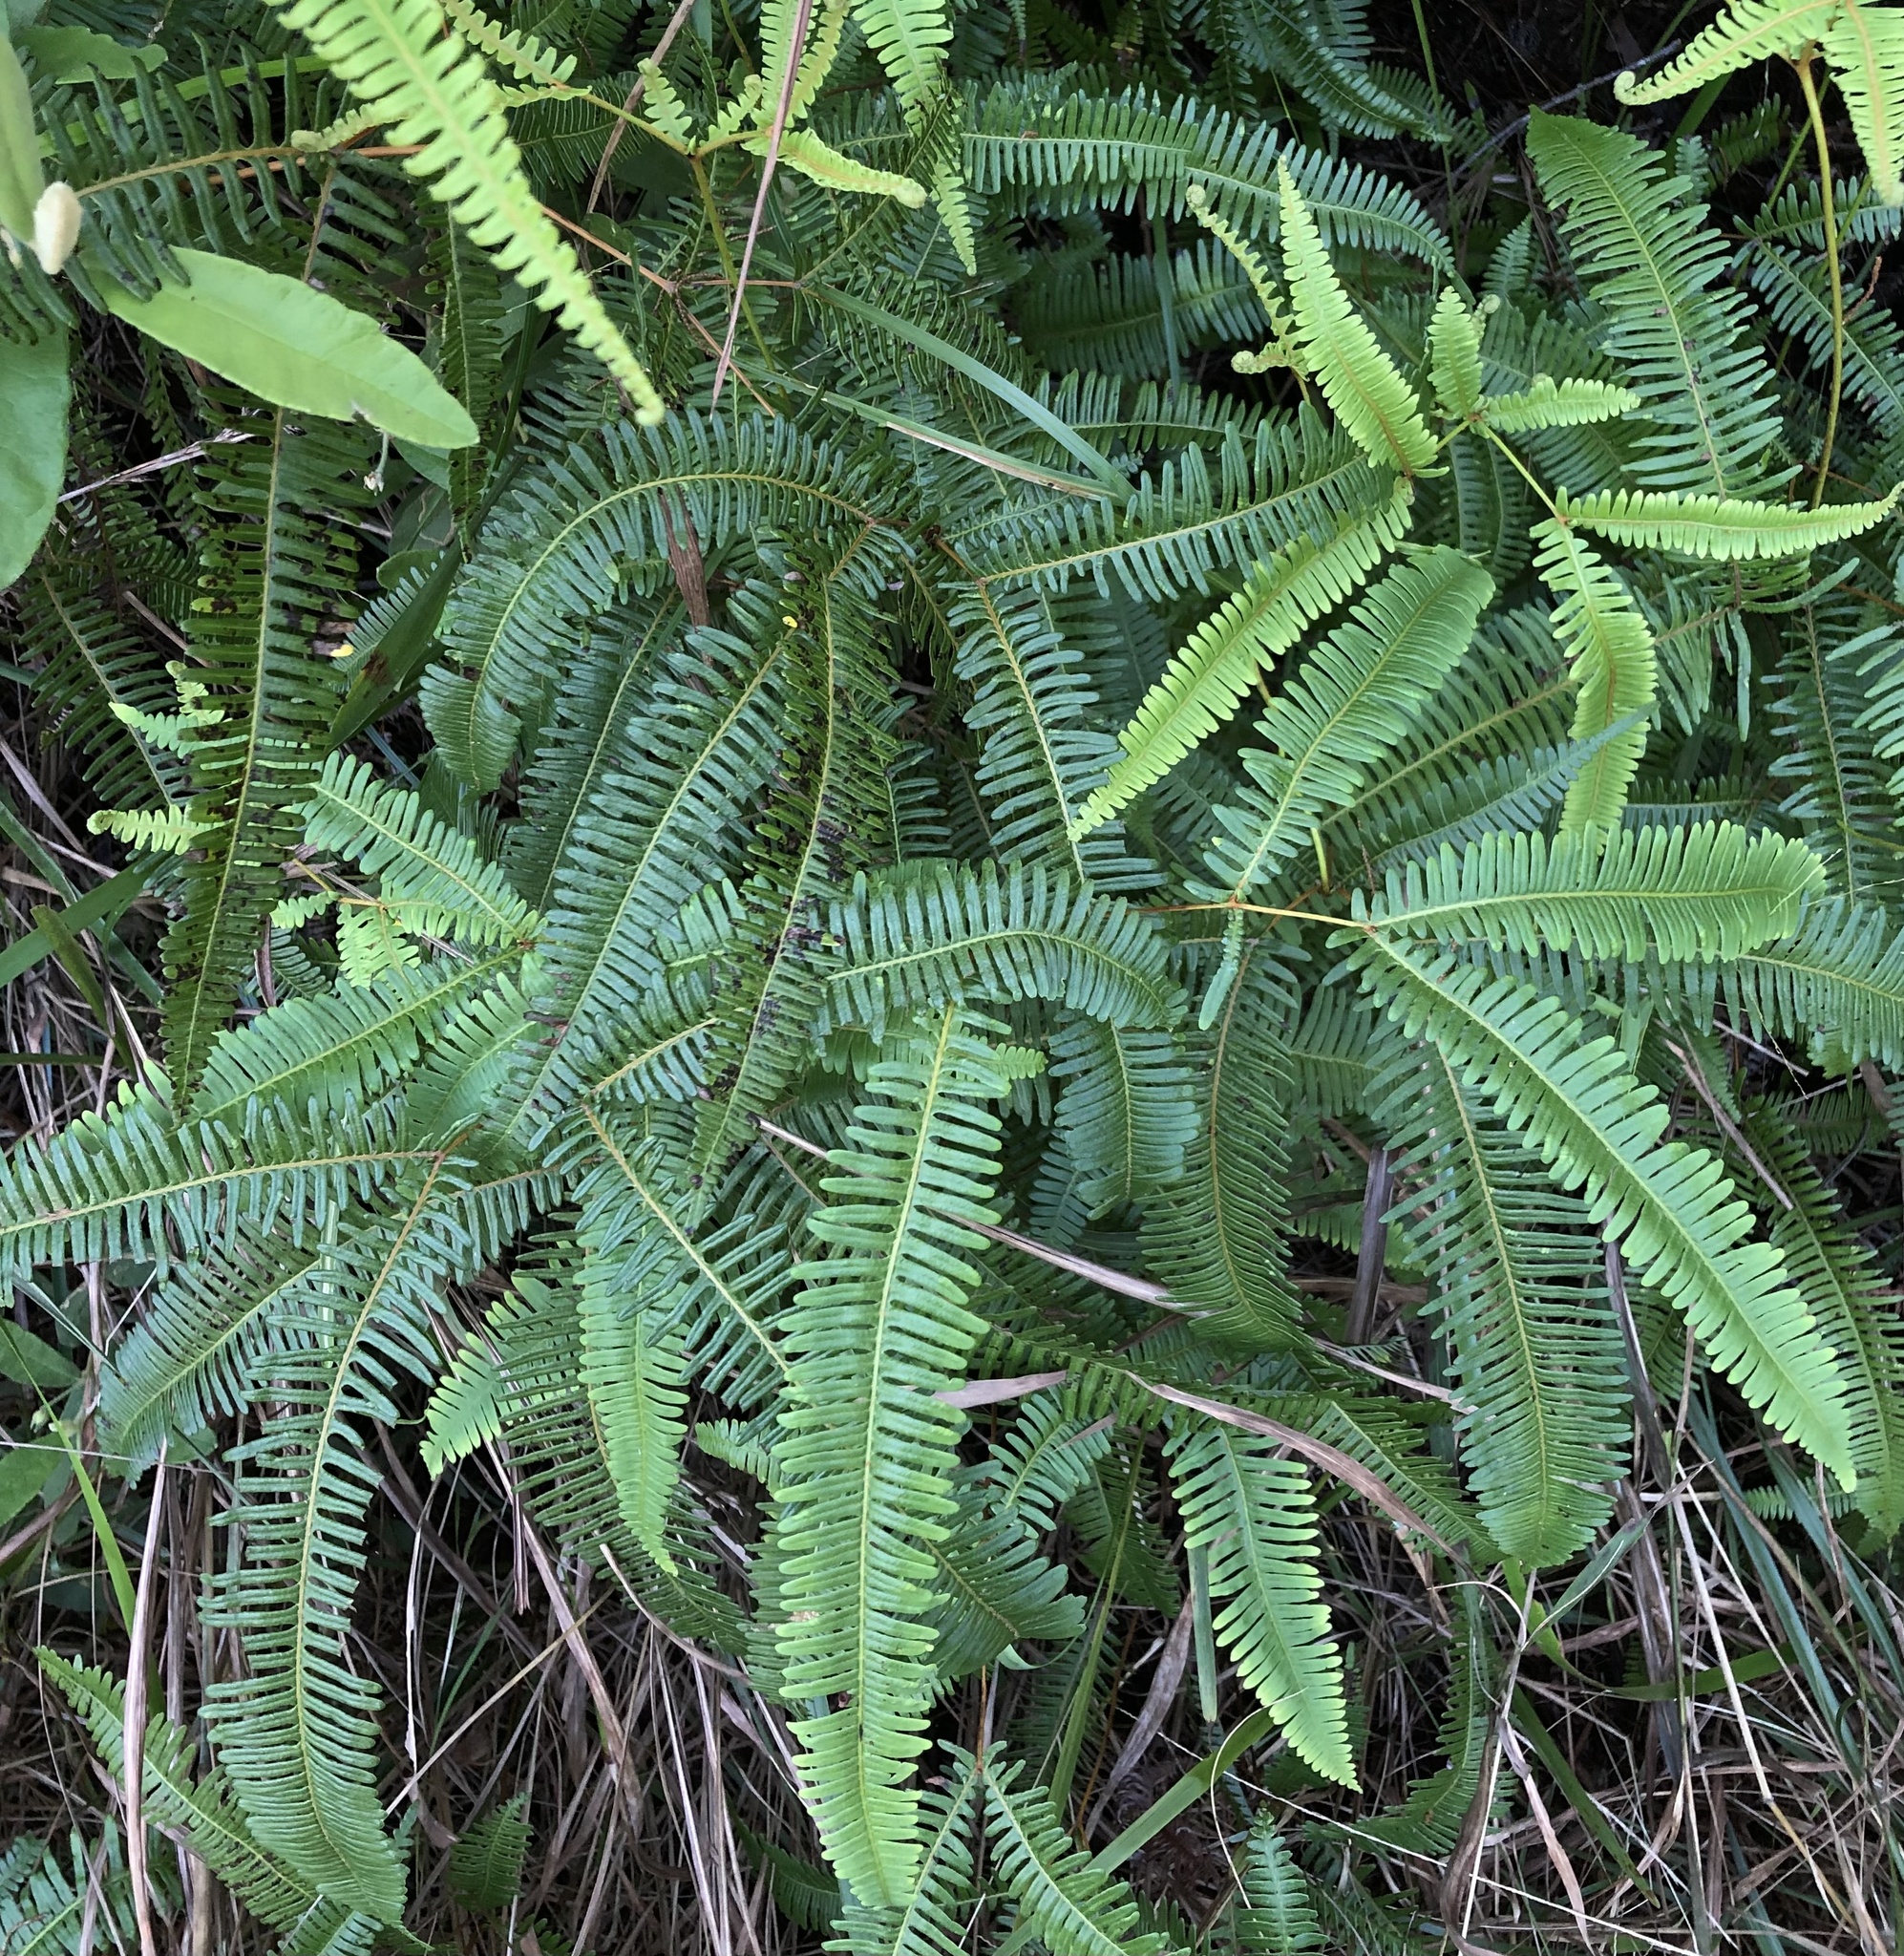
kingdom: Plantae
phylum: Tracheophyta
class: Polypodiopsida
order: Gleicheniales
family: Gleicheniaceae
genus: Dicranopteris
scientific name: Dicranopteris linearis
